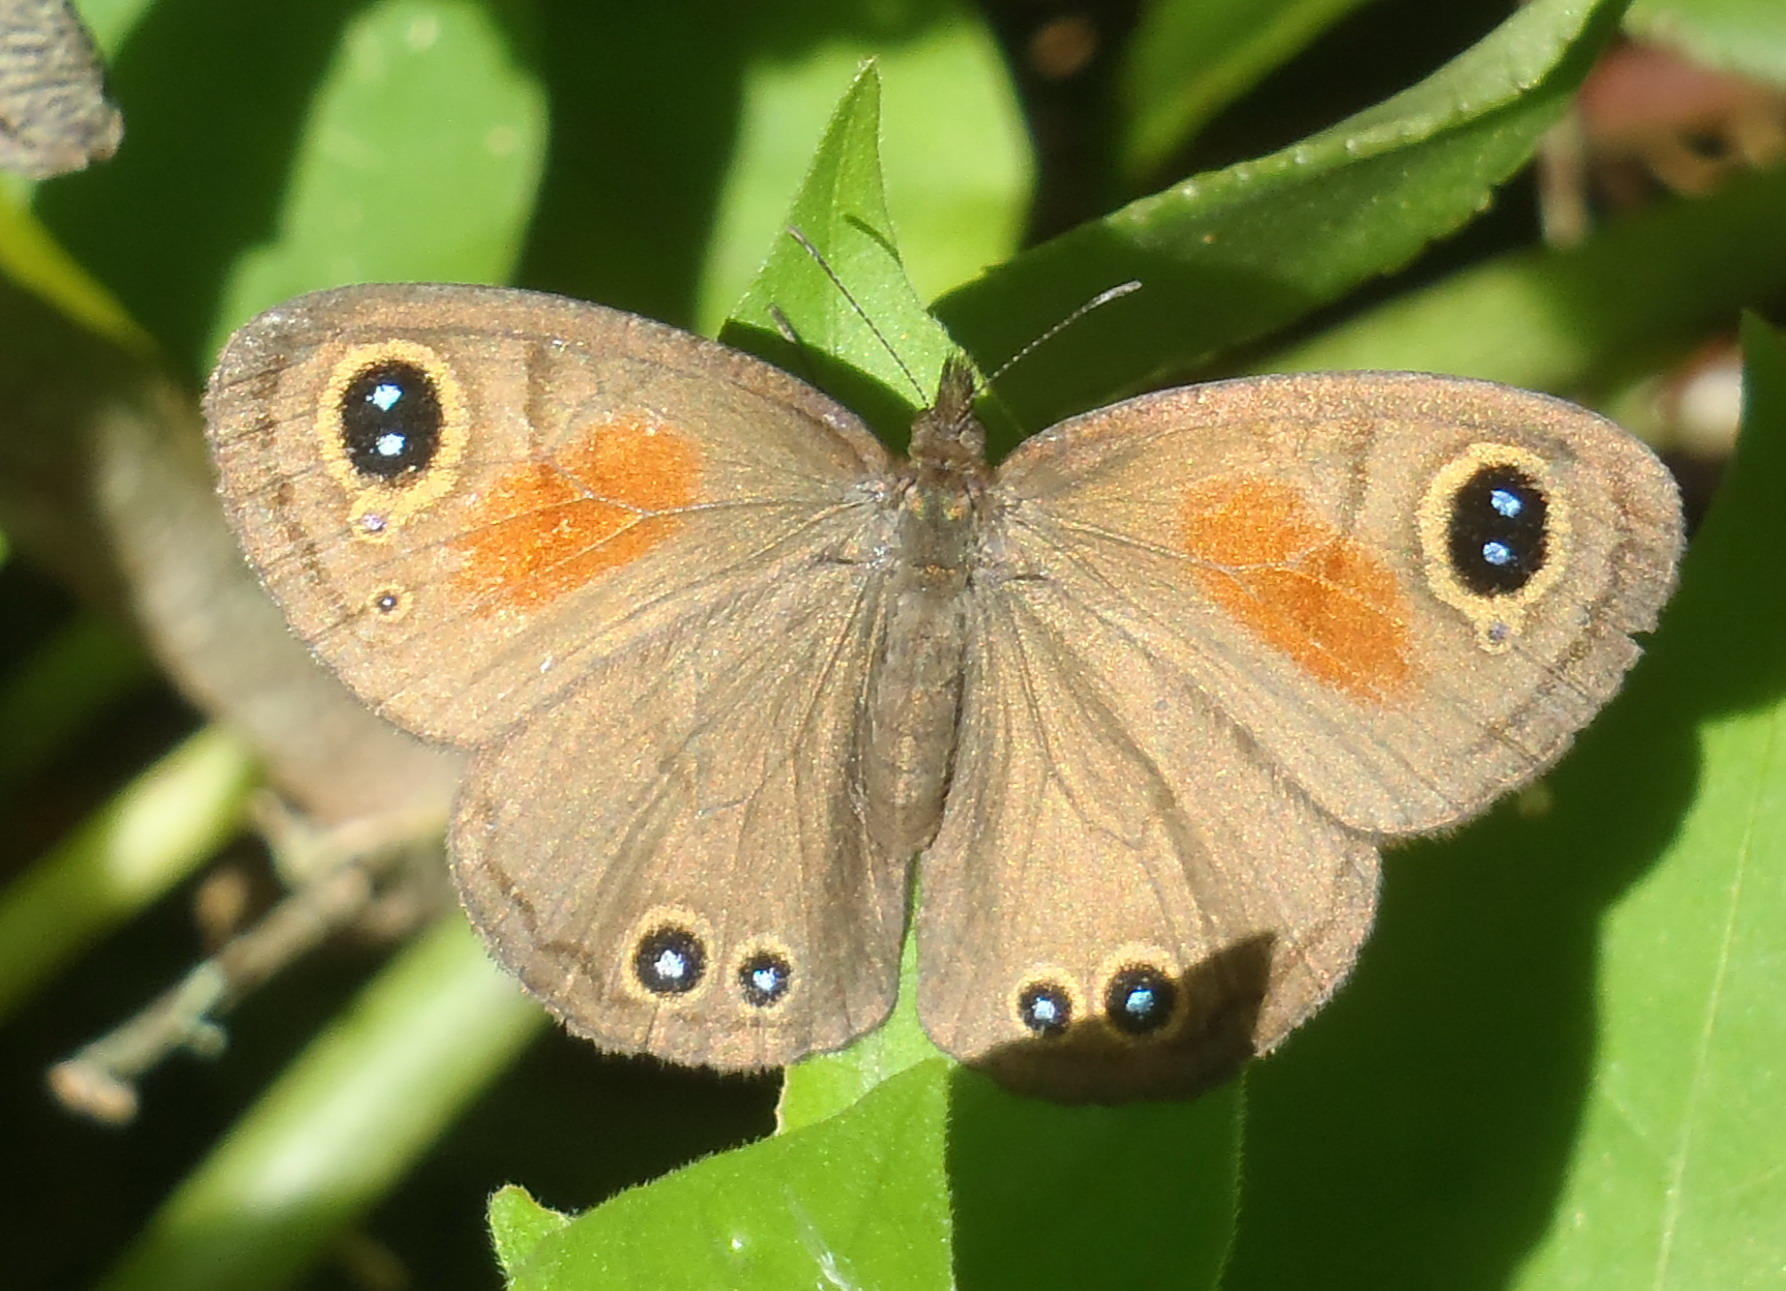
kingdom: Animalia
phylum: Arthropoda
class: Insecta
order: Lepidoptera
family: Nymphalidae
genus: Cassionympha
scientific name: Cassionympha cassius
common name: Rainforest brown
